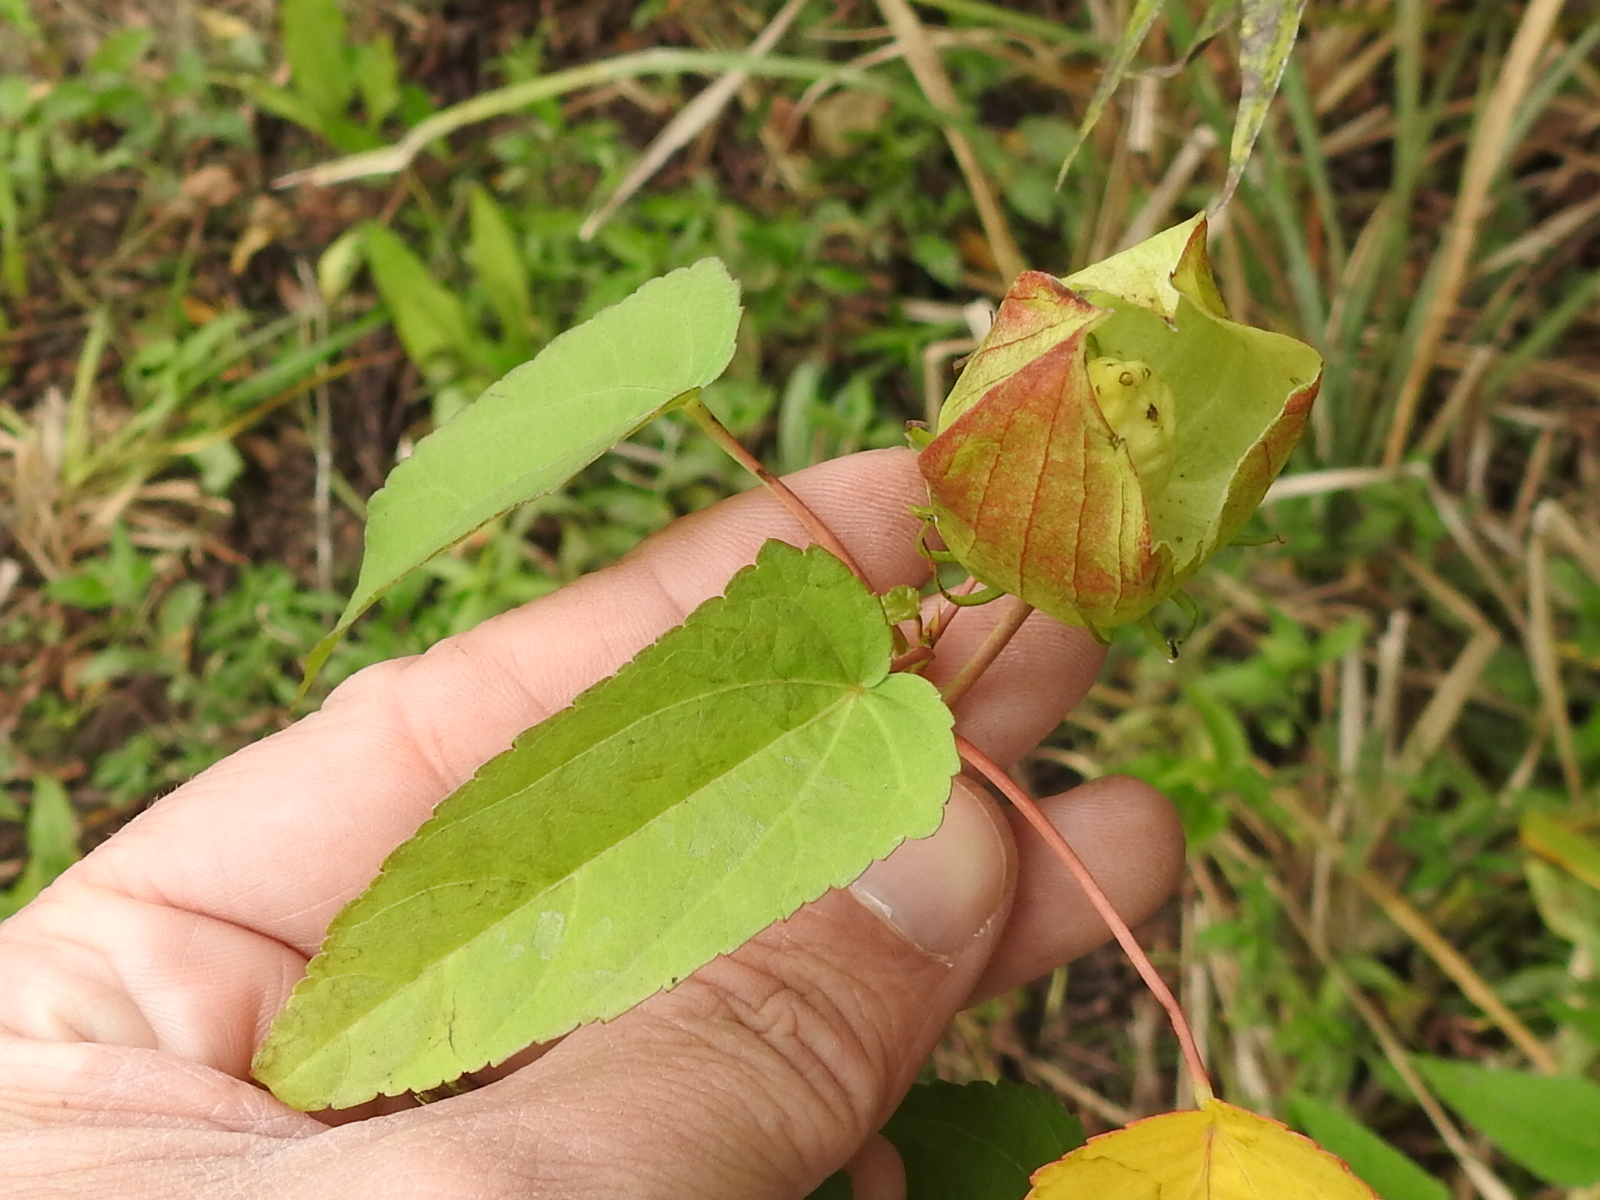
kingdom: Plantae
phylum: Tracheophyta
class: Magnoliopsida
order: Malvales
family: Malvaceae
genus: Hibiscus
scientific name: Hibiscus laevis
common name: Scarlet rose-mallow
